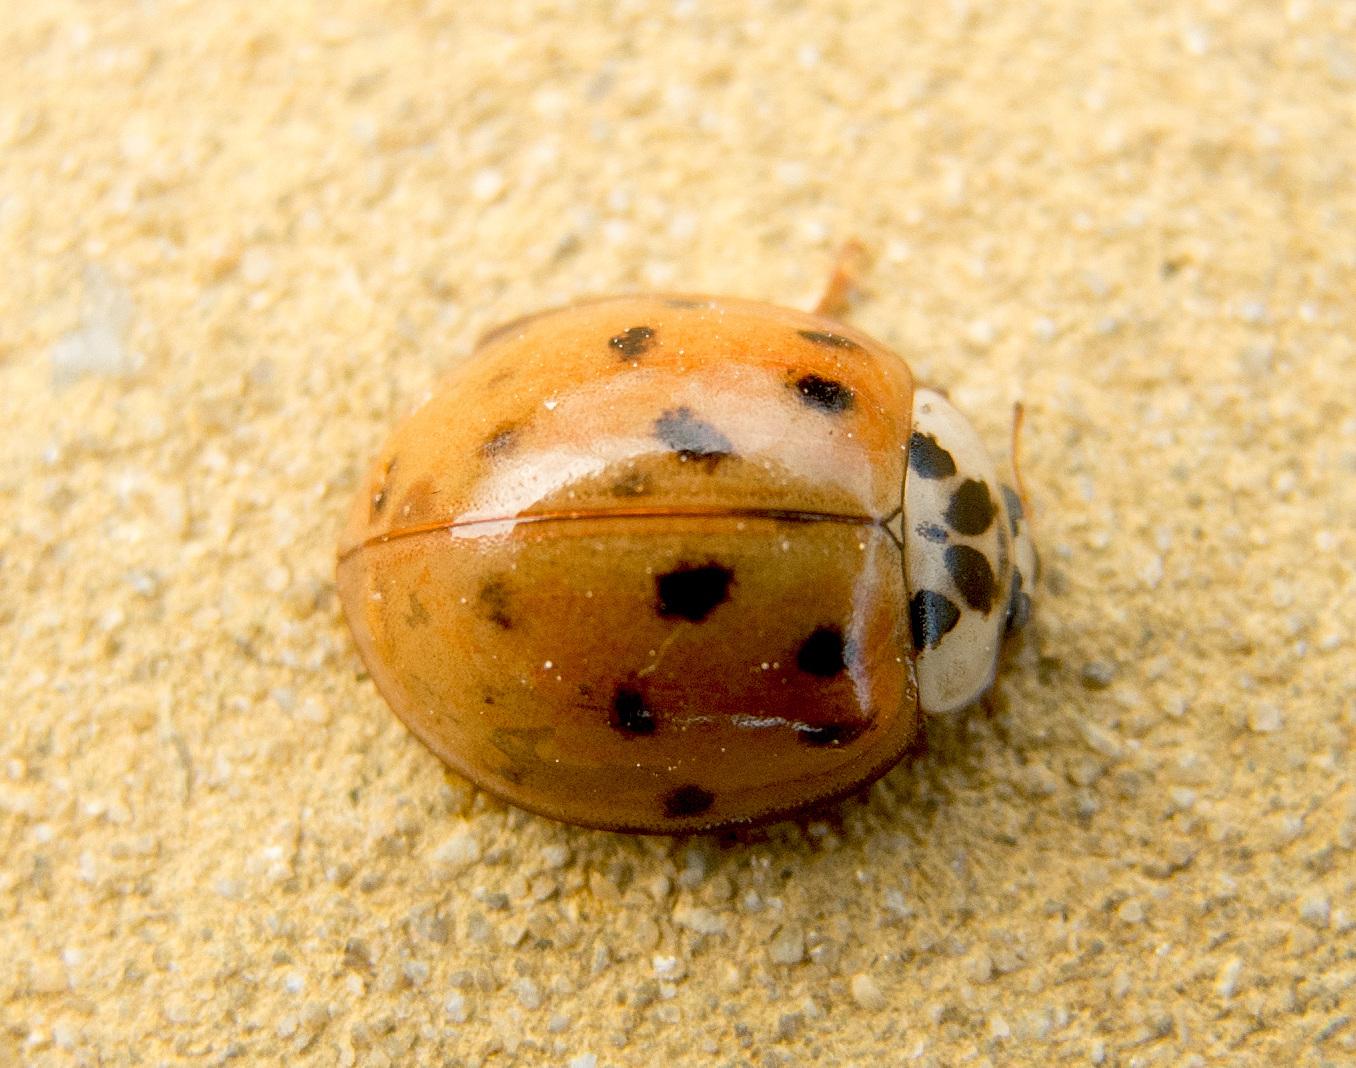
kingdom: Animalia
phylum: Arthropoda
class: Insecta
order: Coleoptera
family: Coccinellidae
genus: Harmonia
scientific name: Harmonia axyridis
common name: Harlequin ladybird
